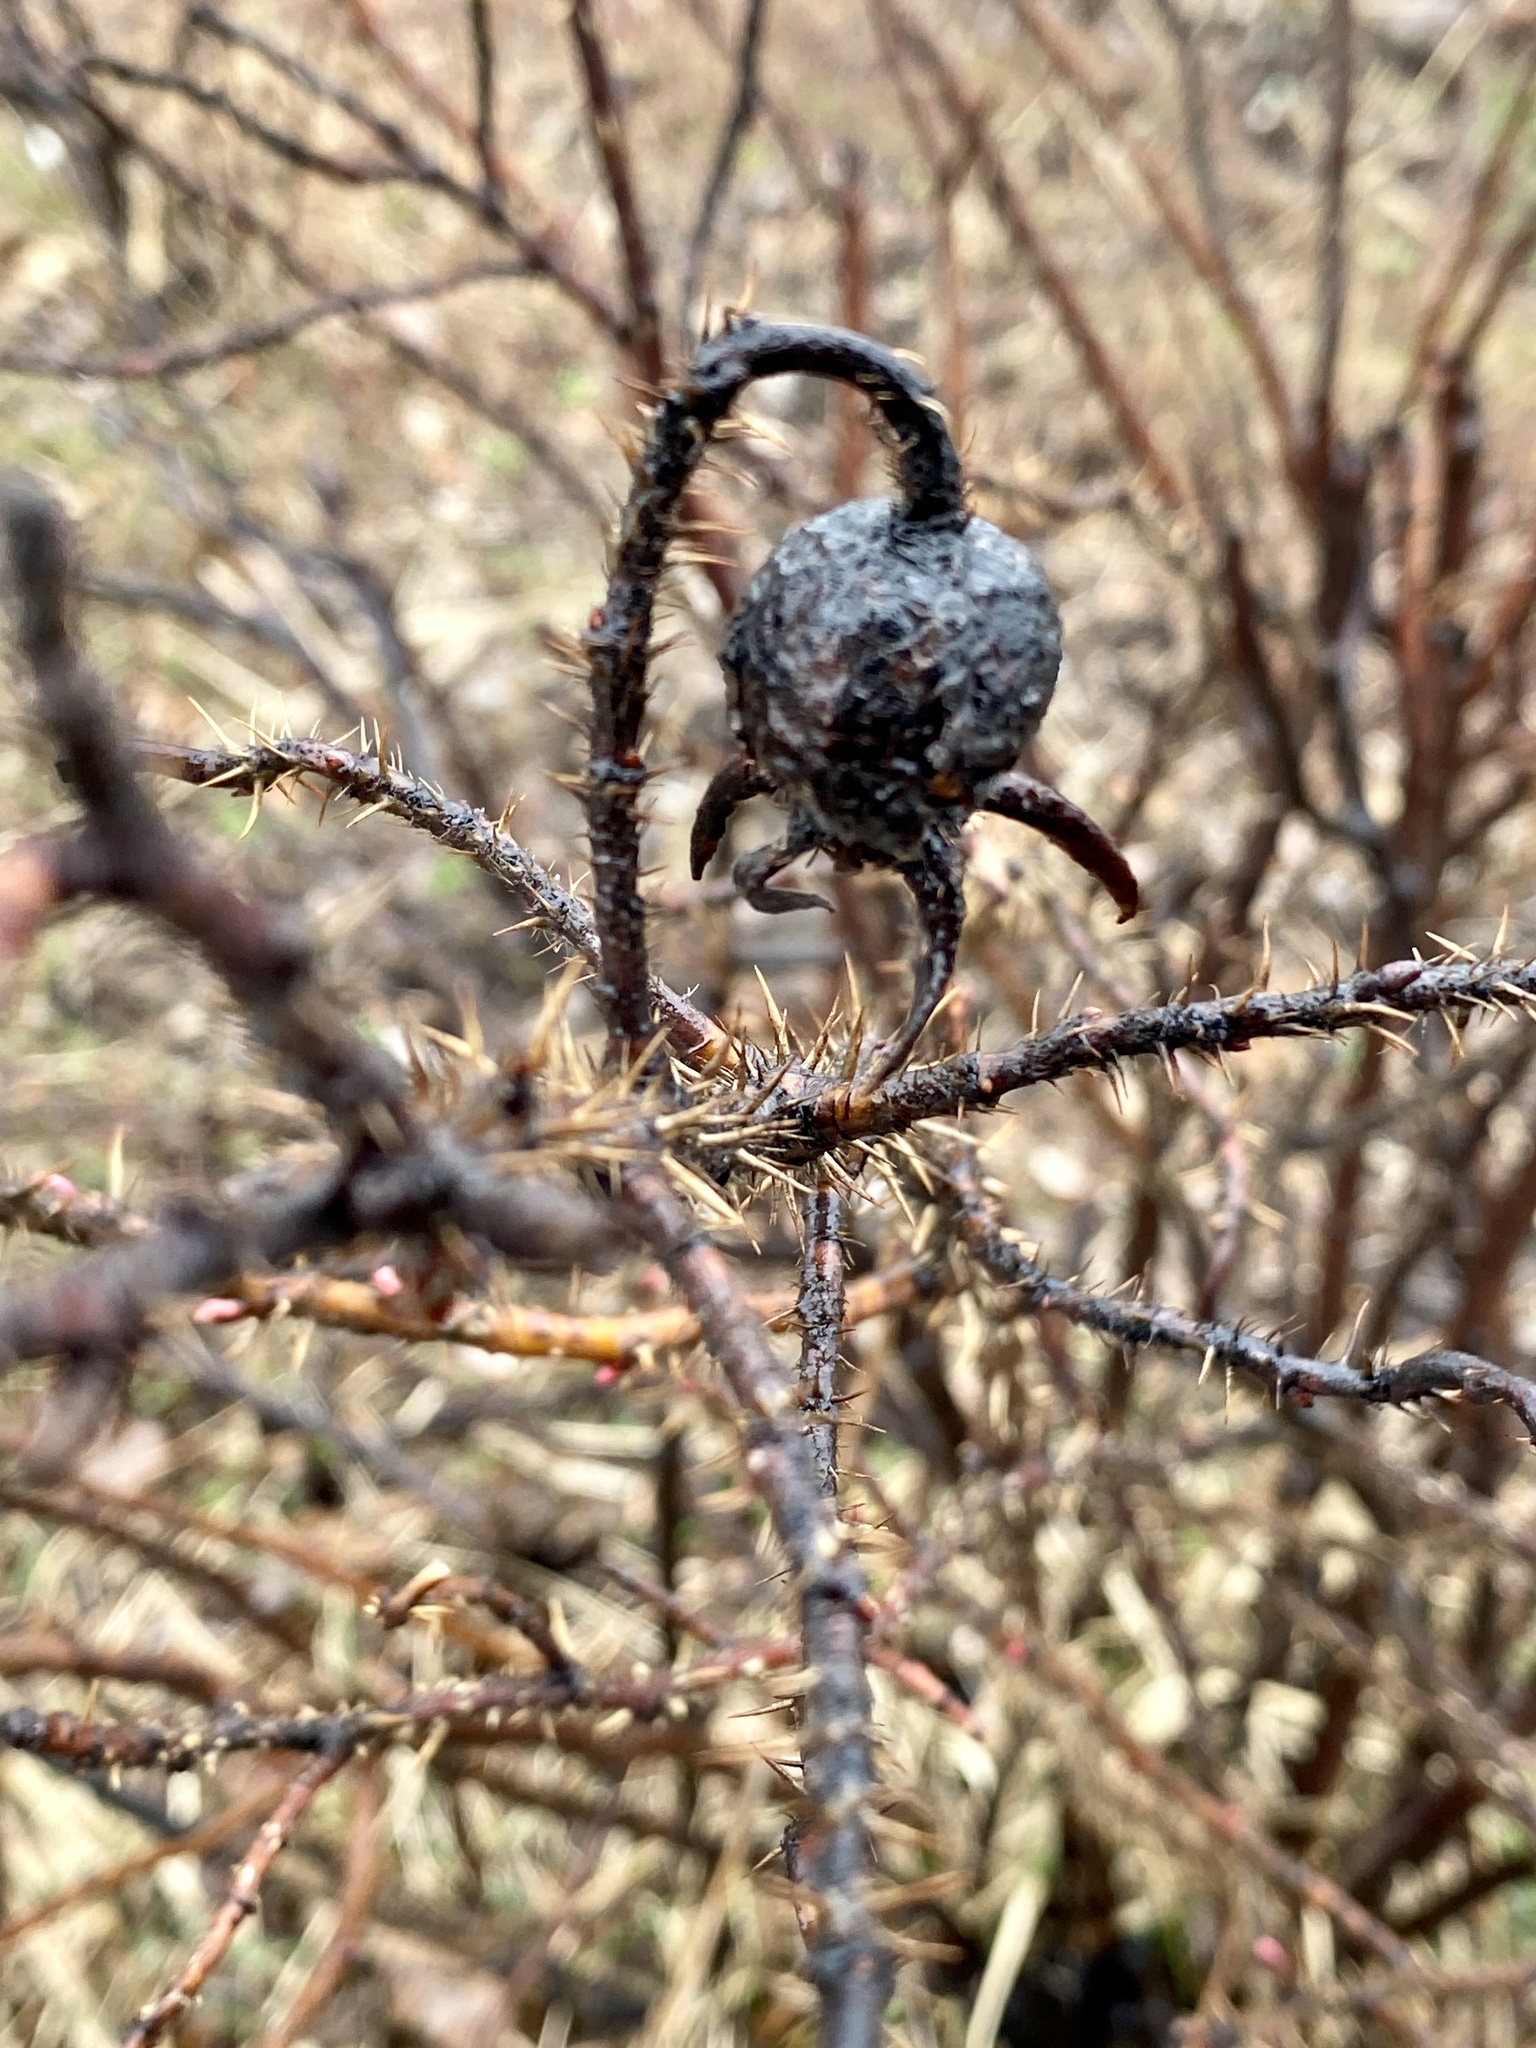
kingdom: Plantae
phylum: Tracheophyta
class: Magnoliopsida
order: Rosales
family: Rosaceae
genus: Rosa
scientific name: Rosa rugosa
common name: Japanese rose
